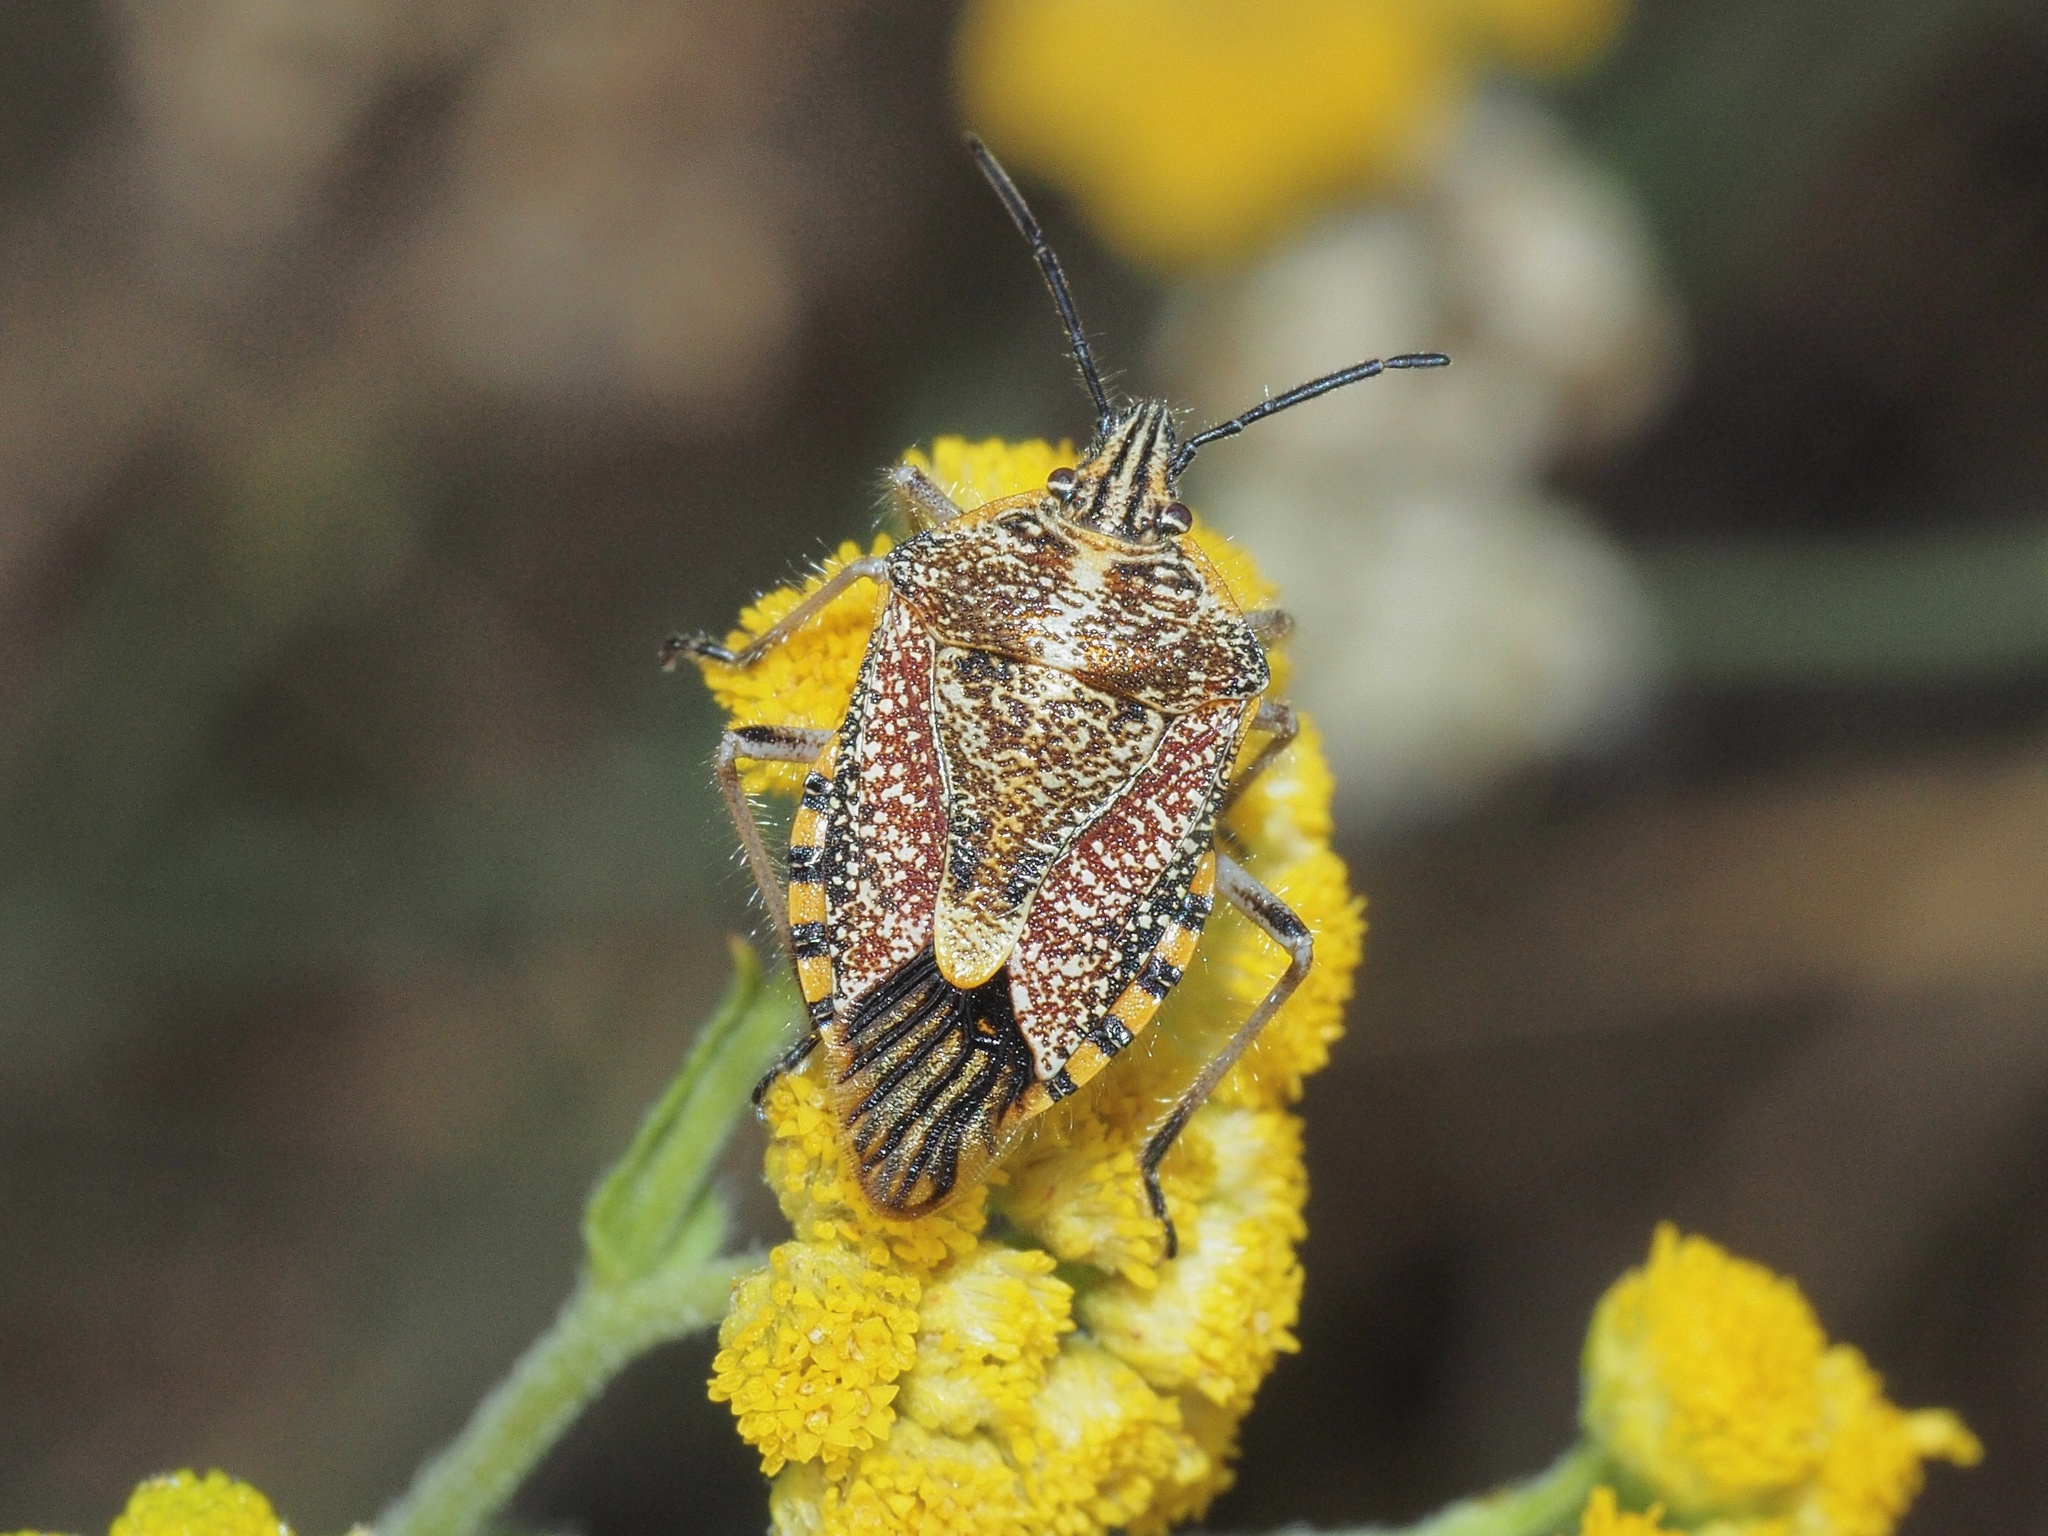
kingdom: Animalia
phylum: Arthropoda
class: Insecta
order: Hemiptera
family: Pentatomidae
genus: Agonoscelis
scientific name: Agonoscelis versicoloratus
